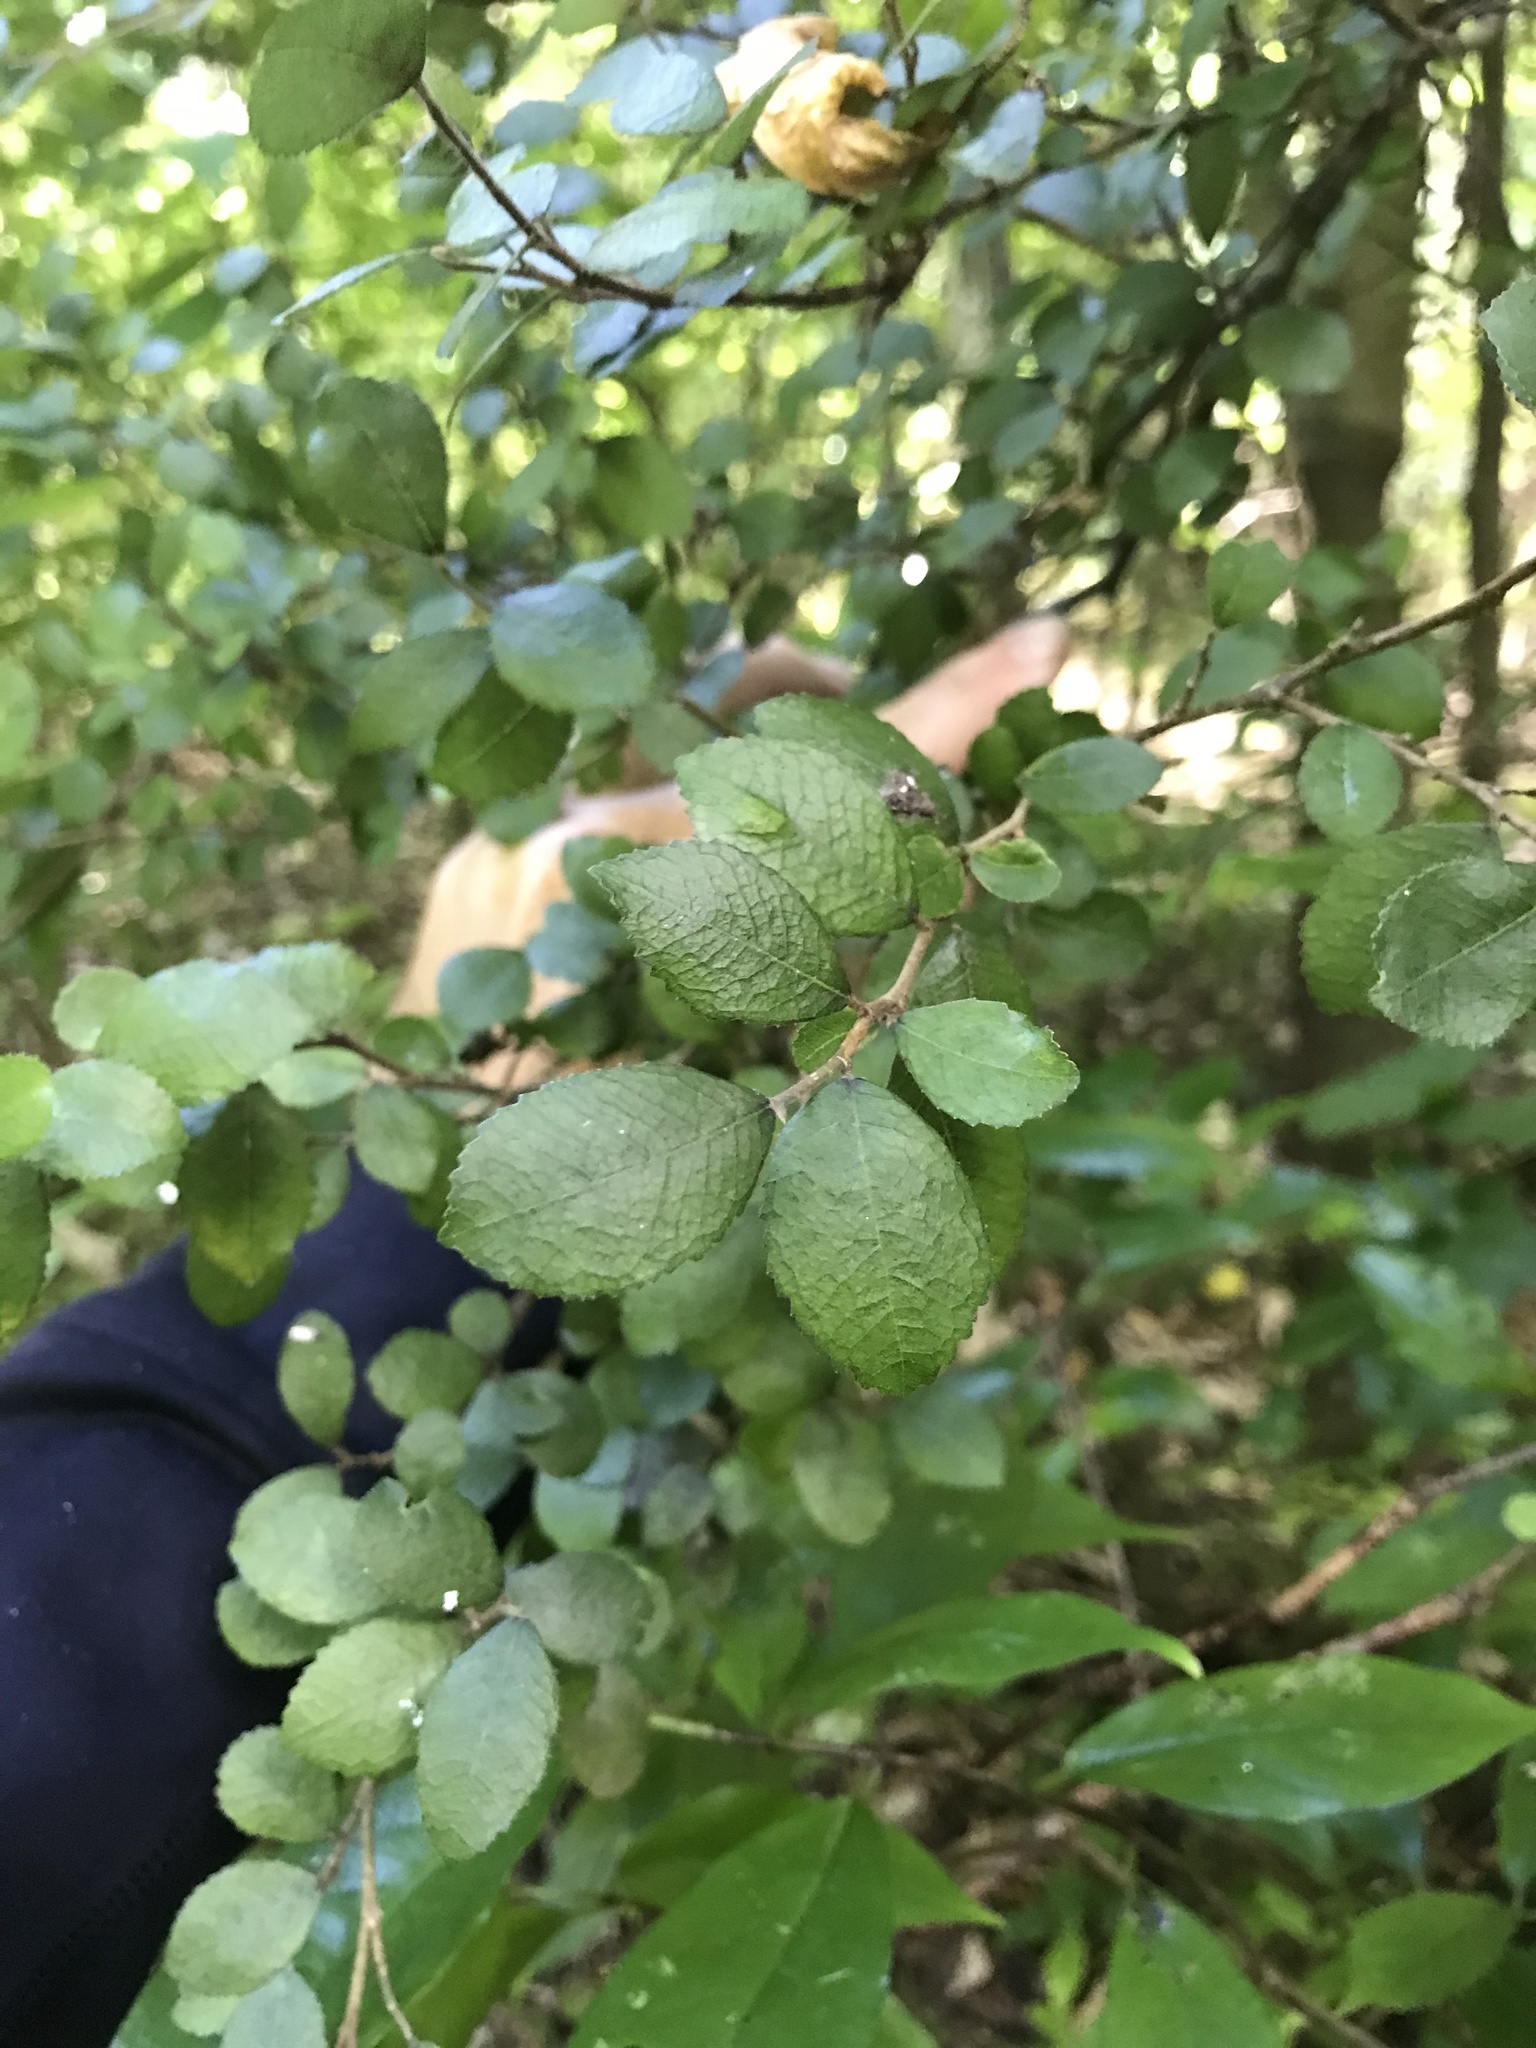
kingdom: Plantae
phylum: Tracheophyta
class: Magnoliopsida
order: Rosales
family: Moraceae
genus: Paratrophis
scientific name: Paratrophis microphylla
